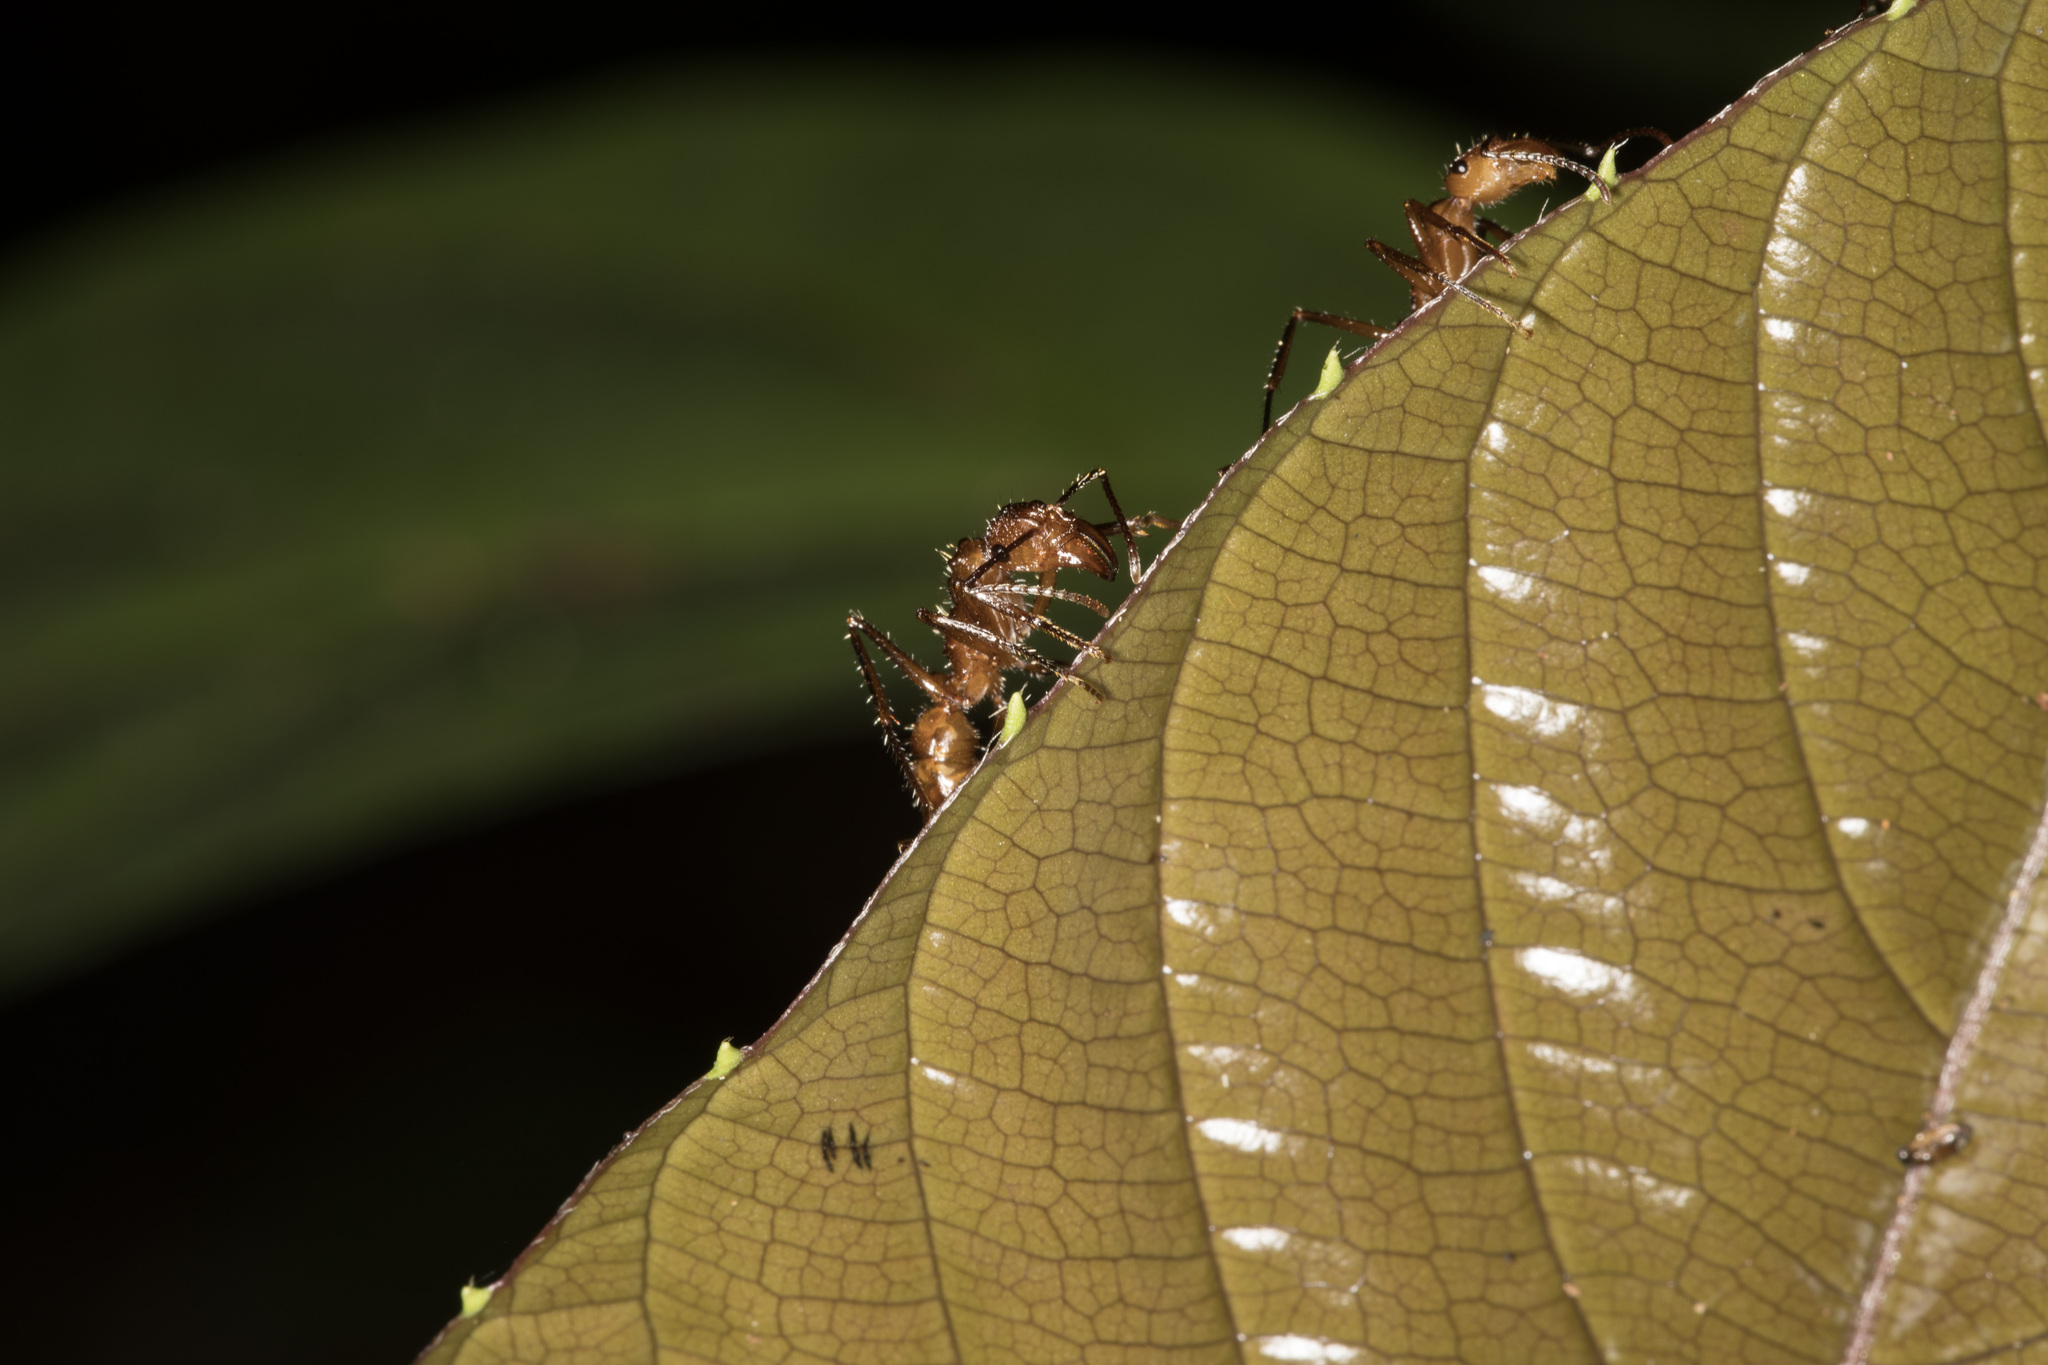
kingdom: Animalia
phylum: Arthropoda
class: Insecta
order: Hymenoptera
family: Formicidae
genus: Ectatomma
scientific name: Ectatomma tuberculatum
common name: Ant
